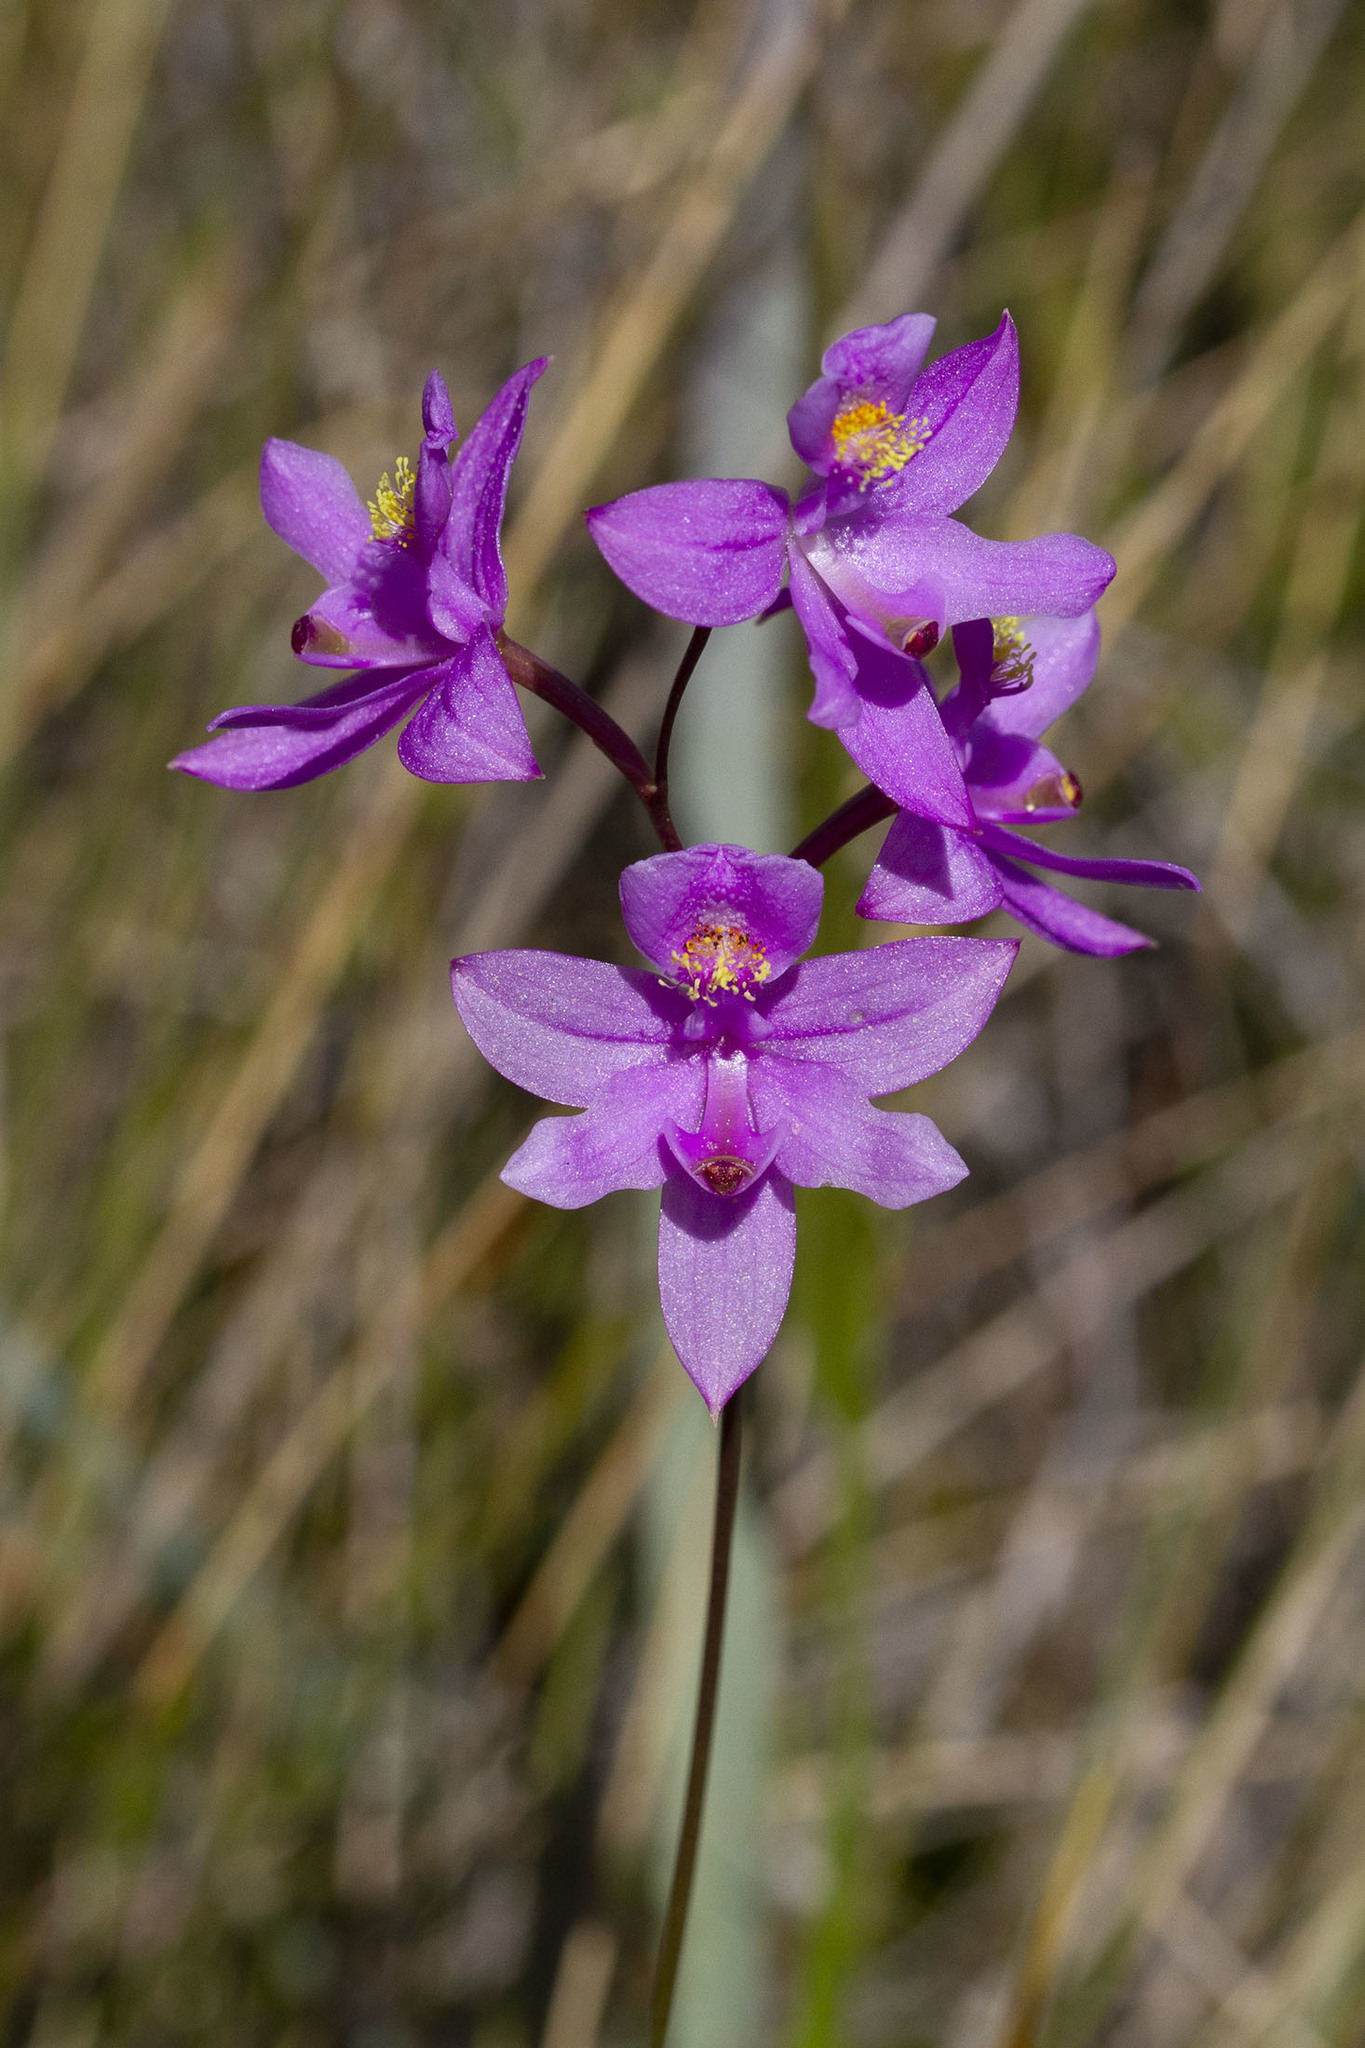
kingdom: Plantae
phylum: Tracheophyta
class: Liliopsida
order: Asparagales
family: Orchidaceae
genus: Calopogon
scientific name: Calopogon barbatus
